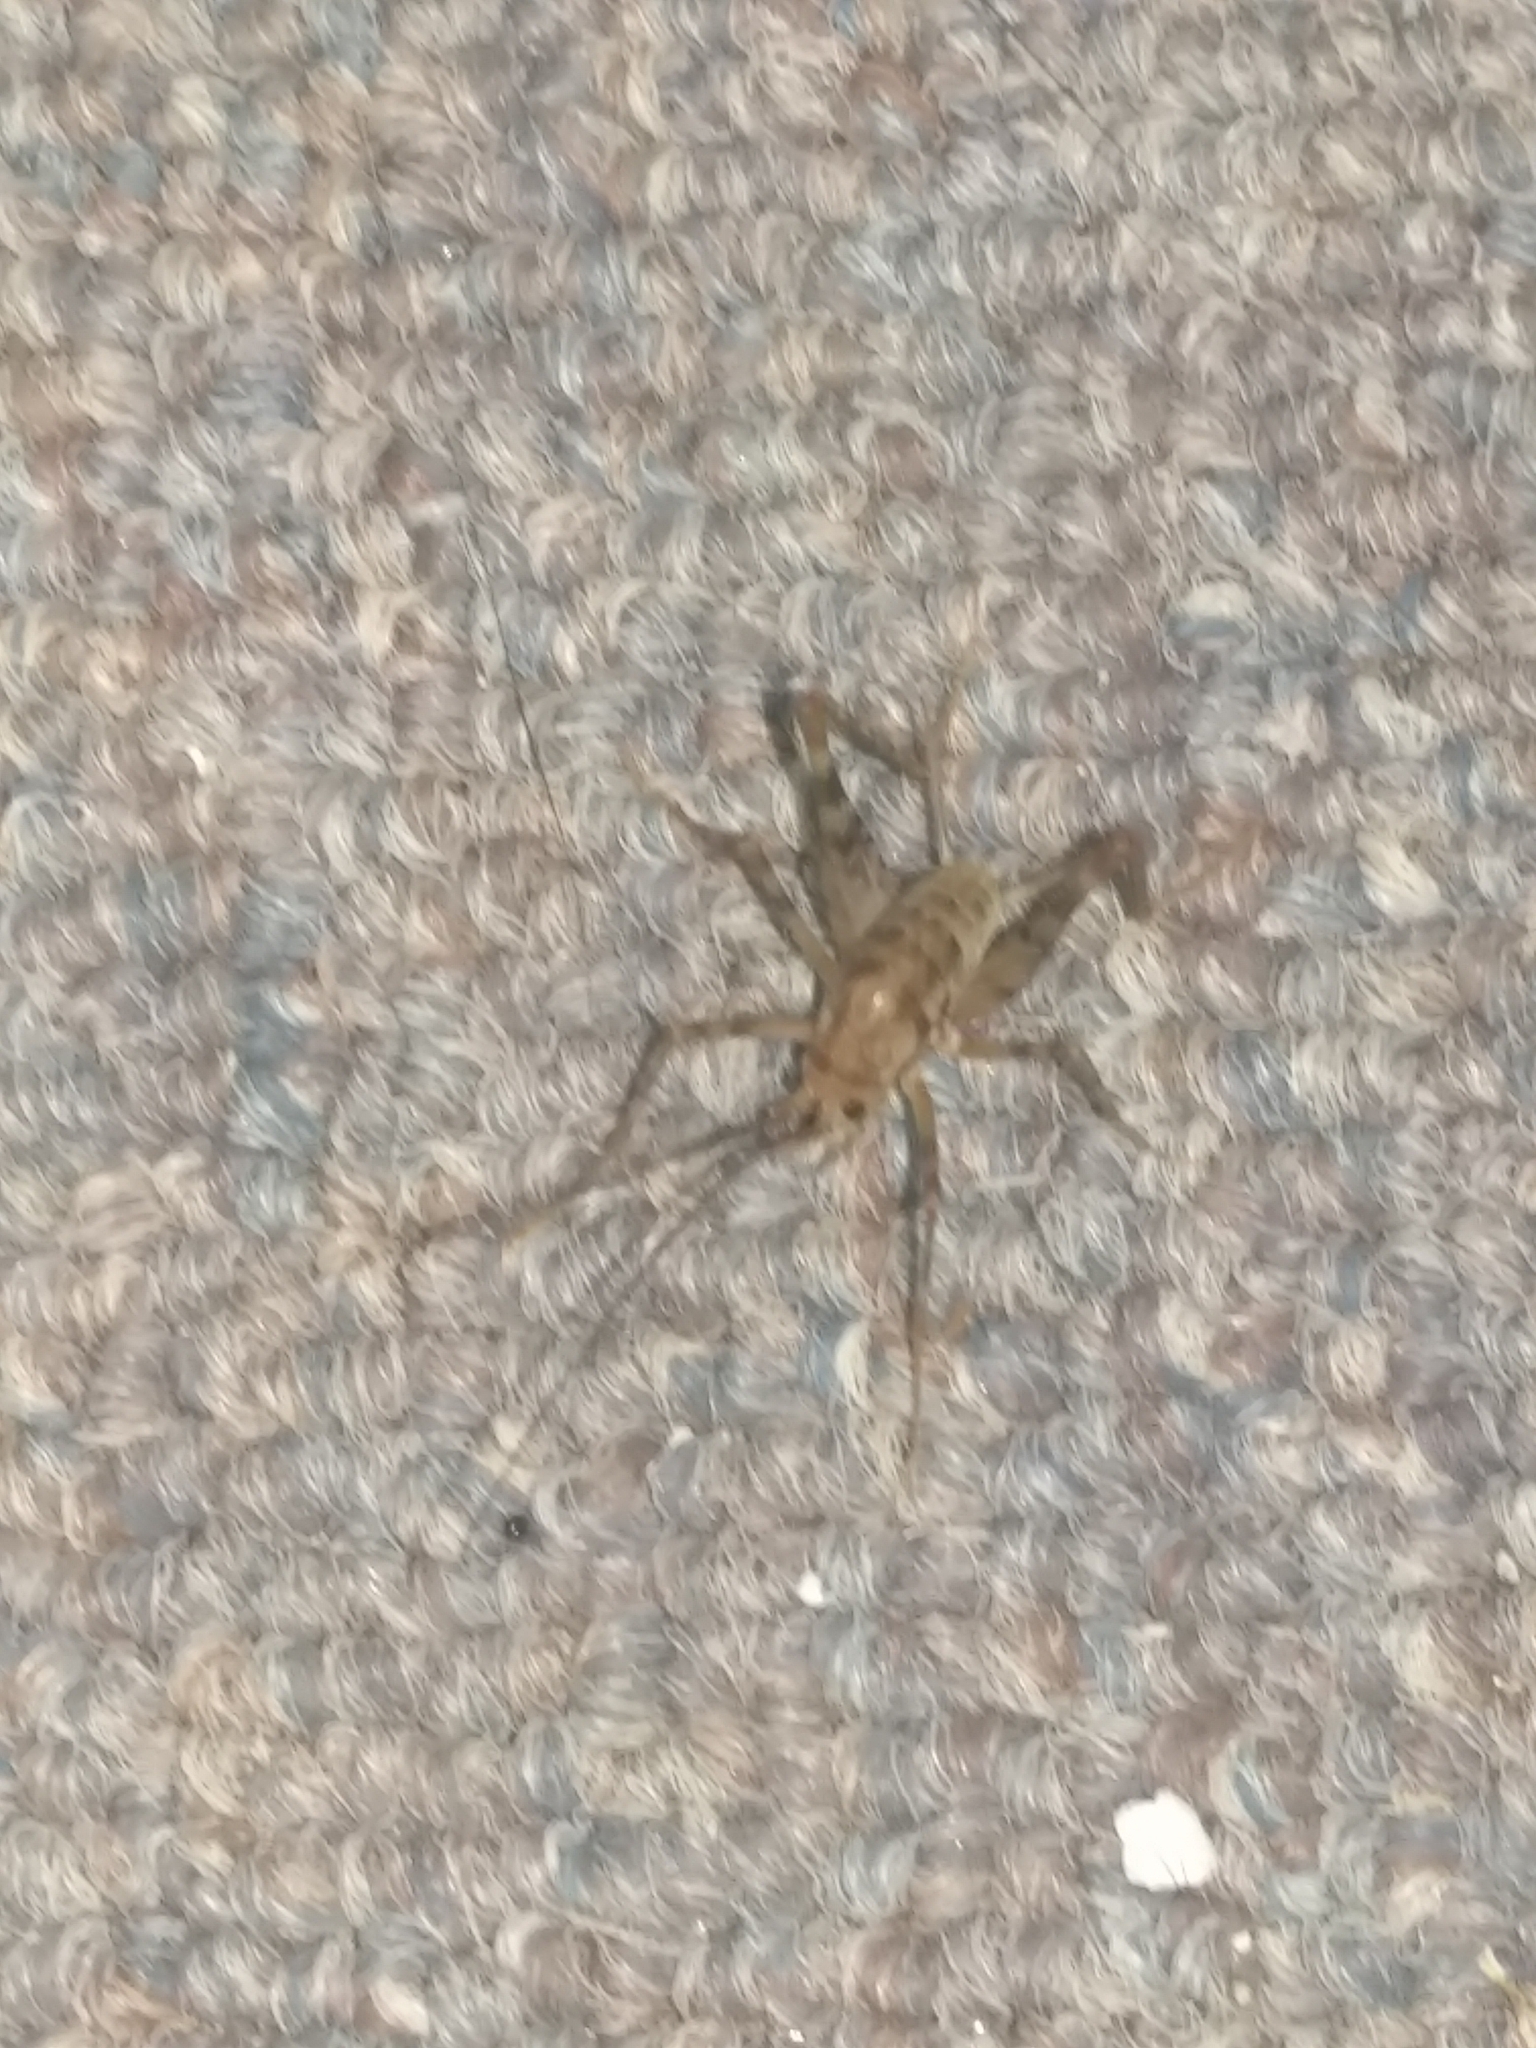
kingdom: Animalia
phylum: Arthropoda
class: Insecta
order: Orthoptera
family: Rhaphidophoridae
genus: Tachycines
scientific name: Tachycines asynamorus
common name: Greenhouse camel cricket
